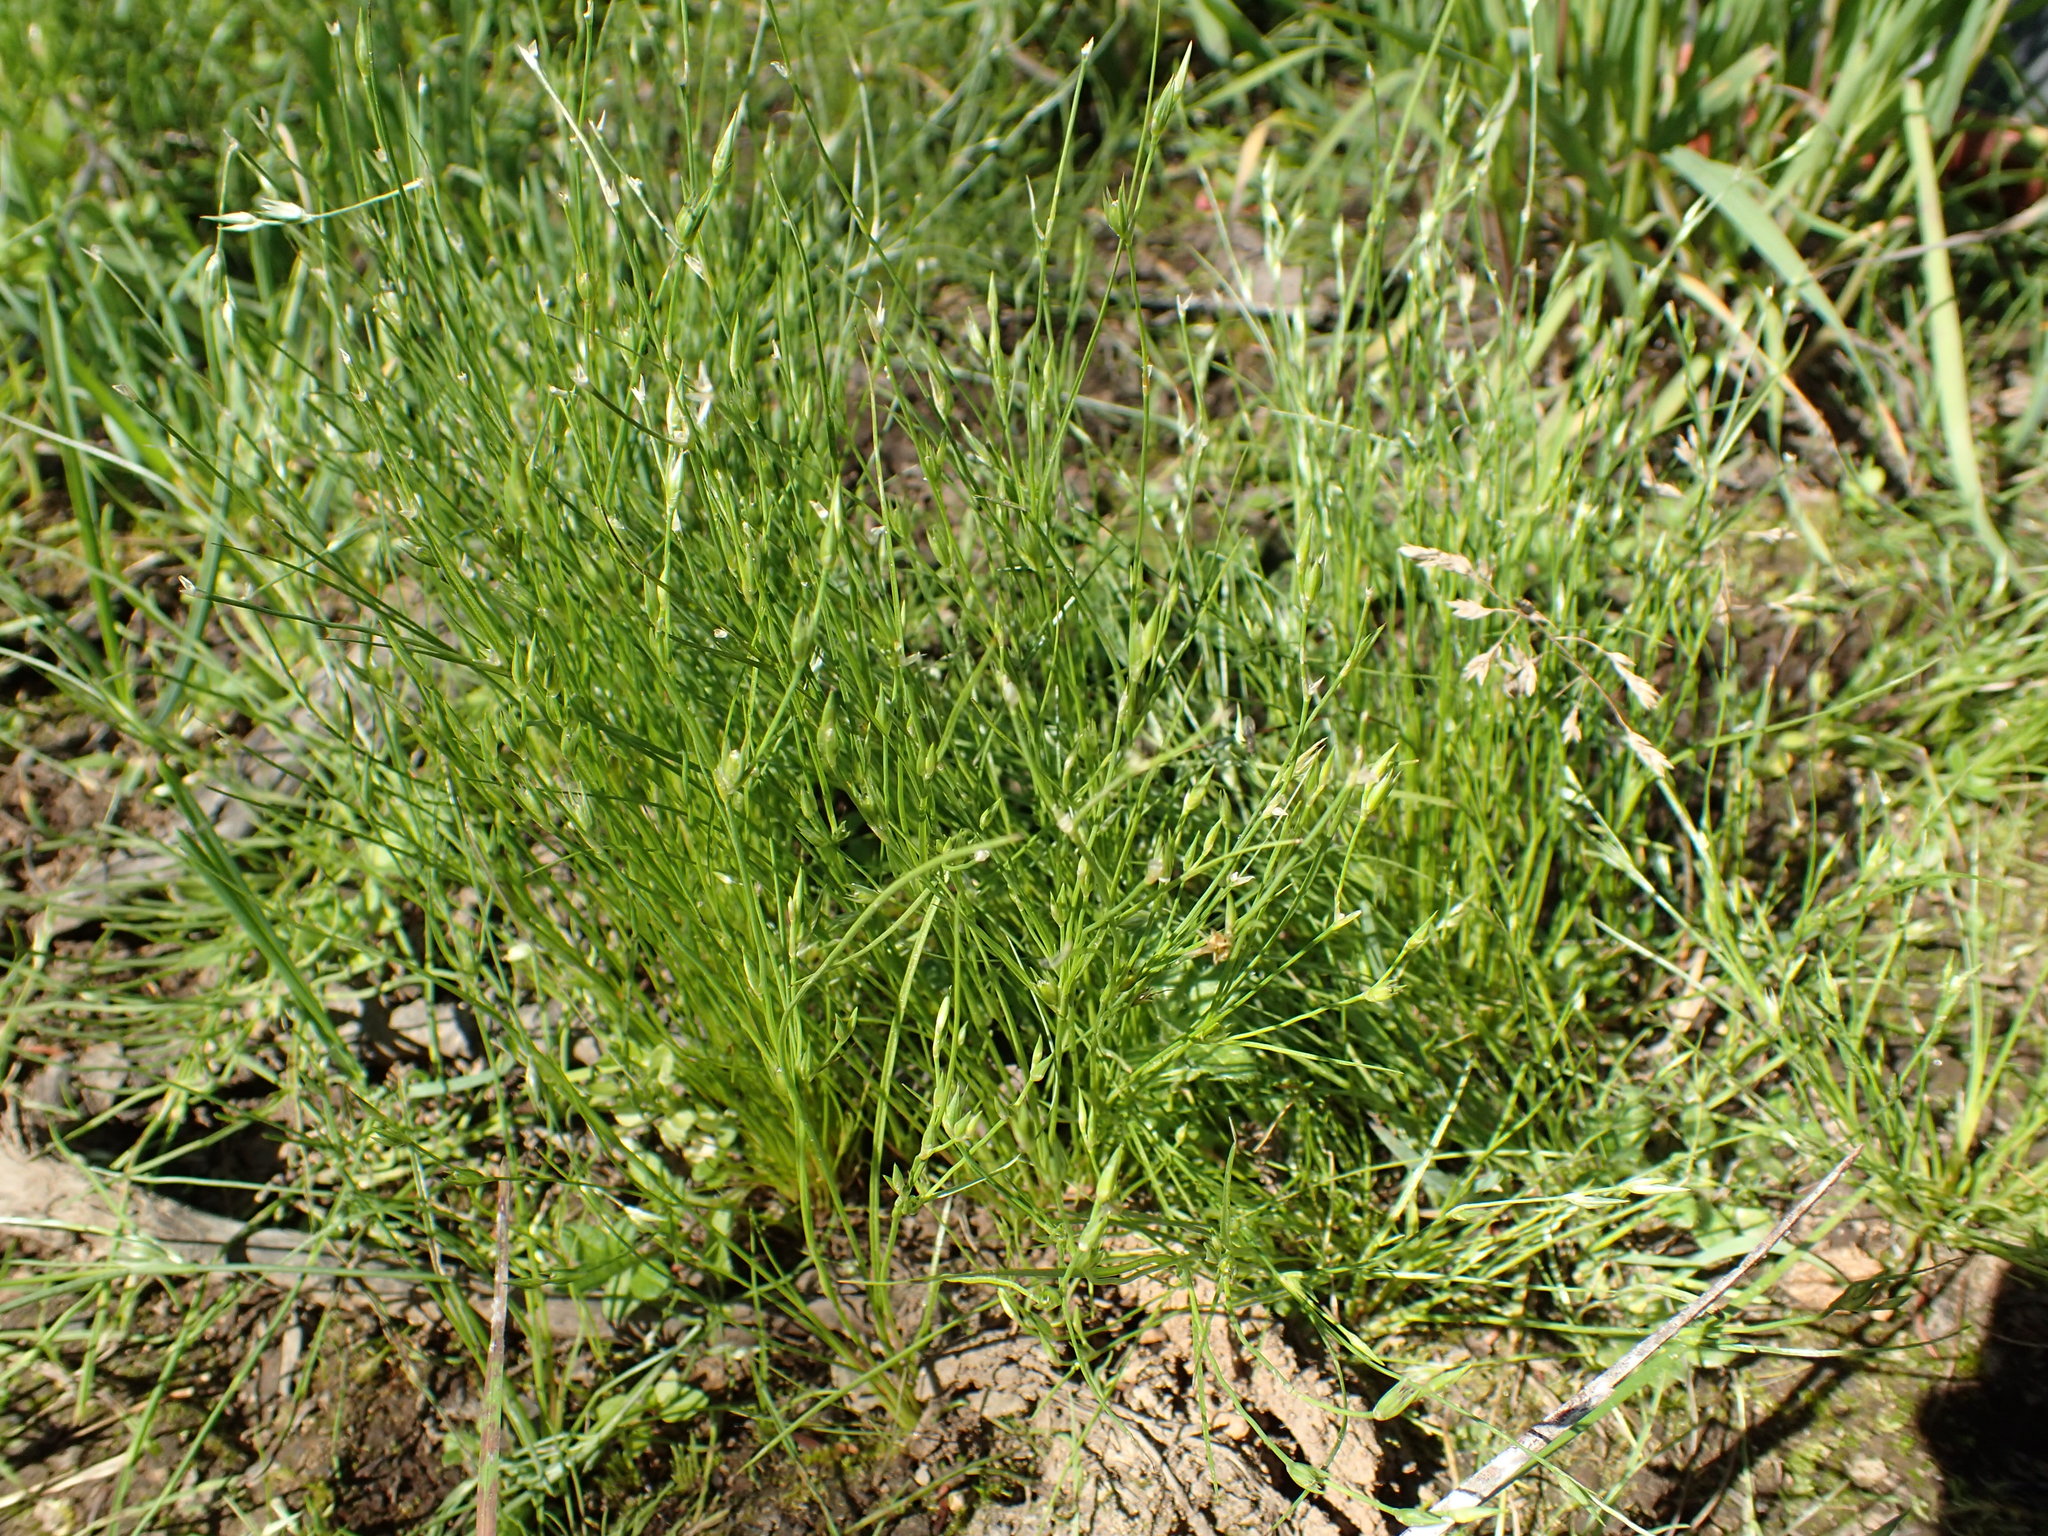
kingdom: Plantae
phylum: Tracheophyta
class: Liliopsida
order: Poales
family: Juncaceae
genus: Juncus
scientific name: Juncus bufonius
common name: Toad rush
